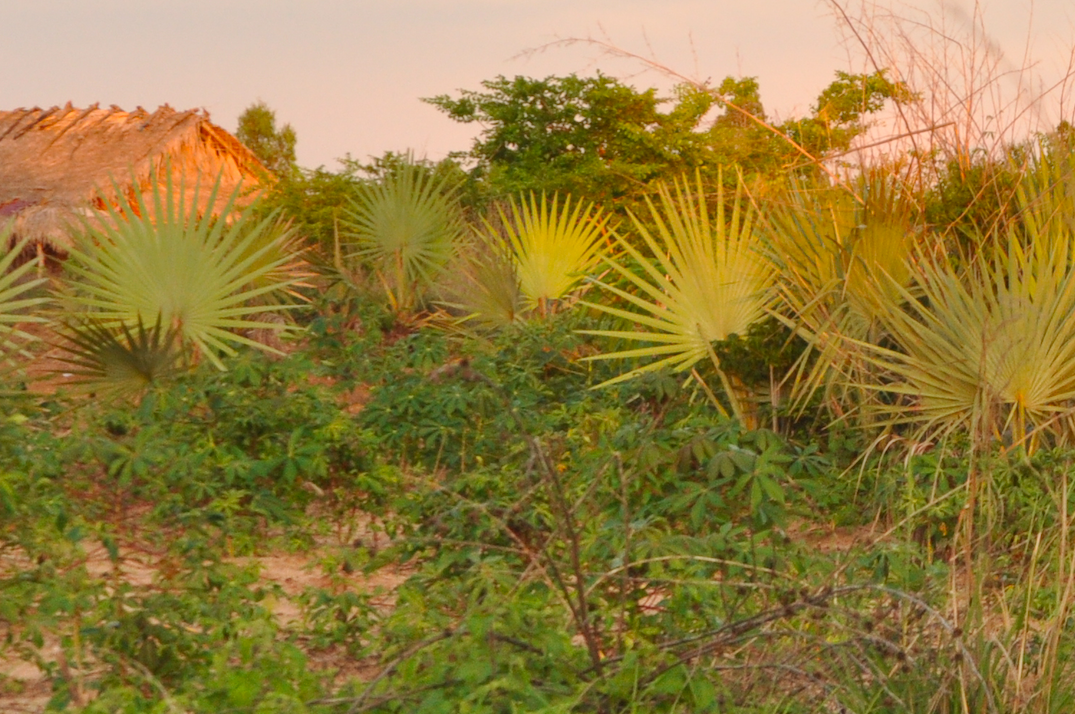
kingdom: Plantae
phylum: Tracheophyta
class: Liliopsida
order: Arecales
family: Arecaceae
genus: Bismarckia
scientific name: Bismarckia nobilis
